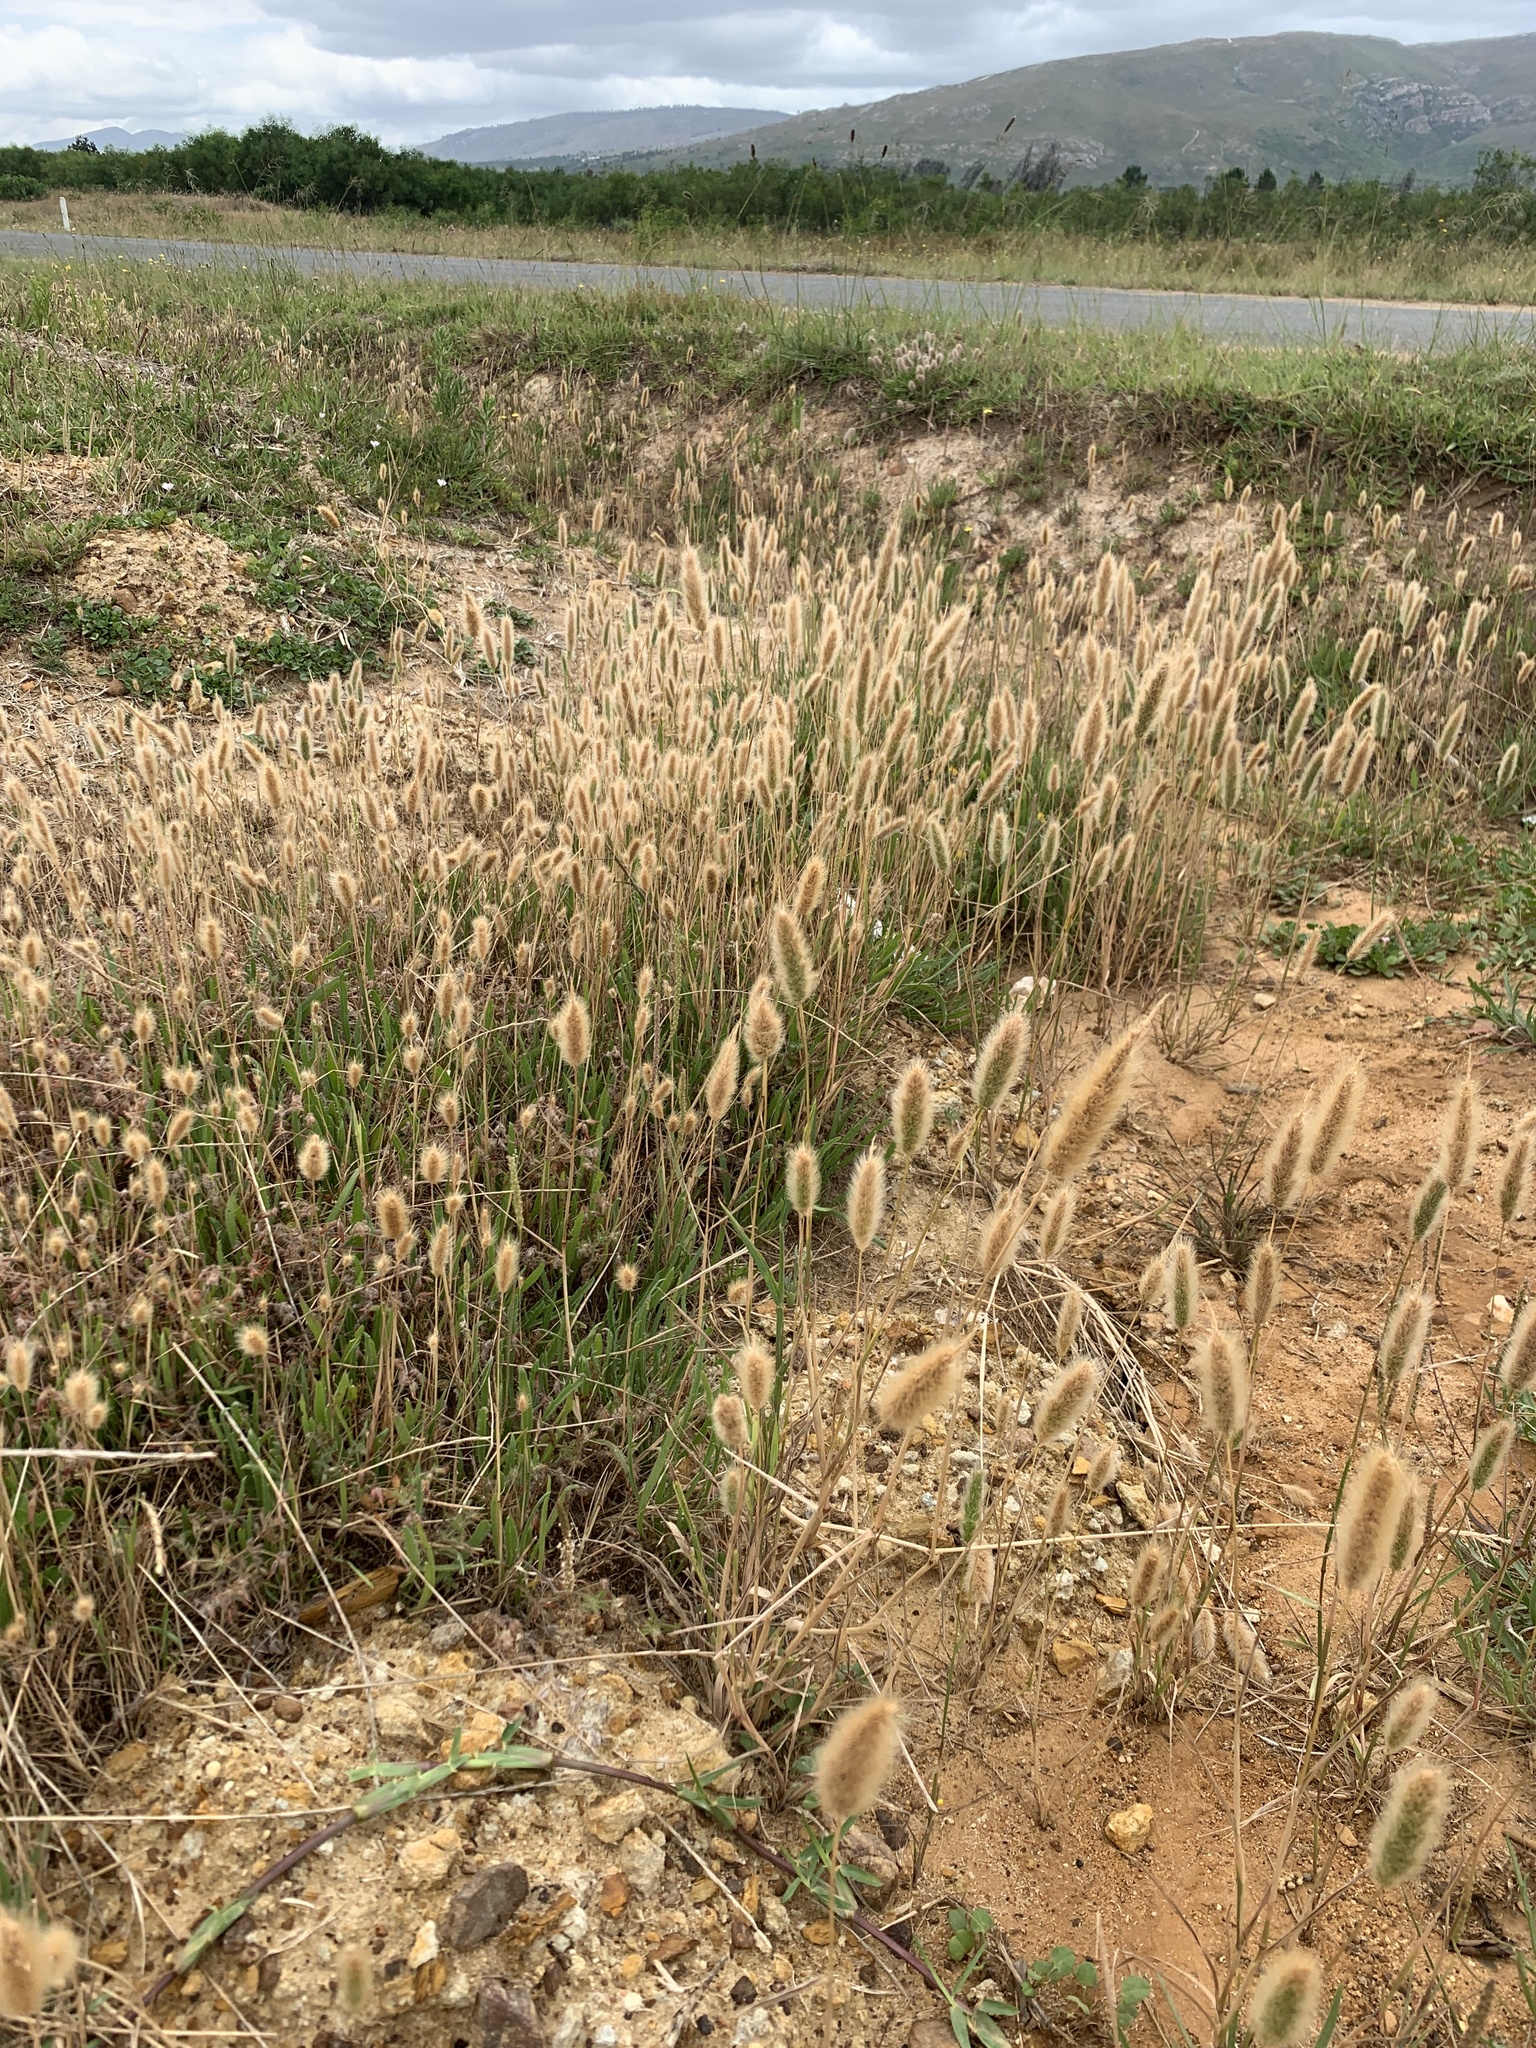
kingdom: Plantae
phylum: Tracheophyta
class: Liliopsida
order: Poales
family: Poaceae
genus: Polypogon
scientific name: Polypogon monspeliensis
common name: Annual rabbitsfoot grass
